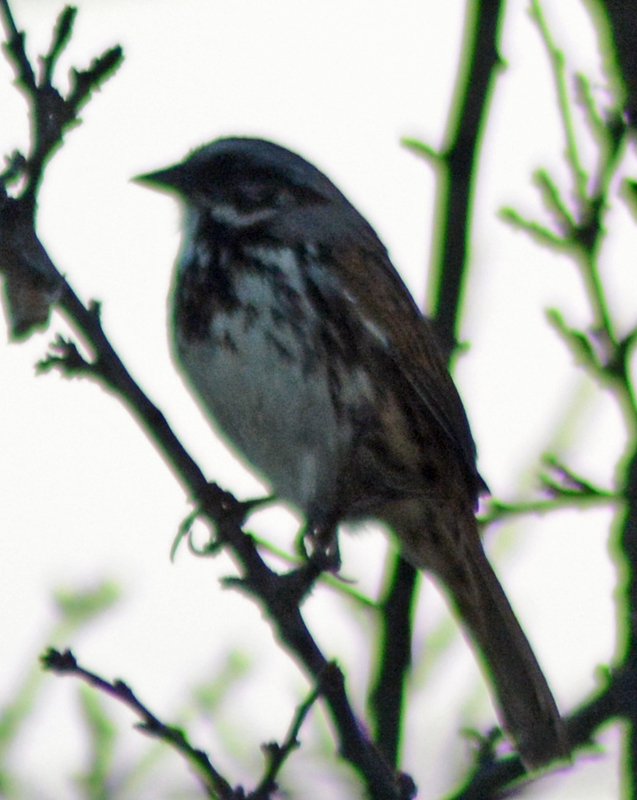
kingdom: Animalia
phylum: Chordata
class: Aves
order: Passeriformes
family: Passerellidae
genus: Melospiza
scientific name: Melospiza melodia
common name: Song sparrow
